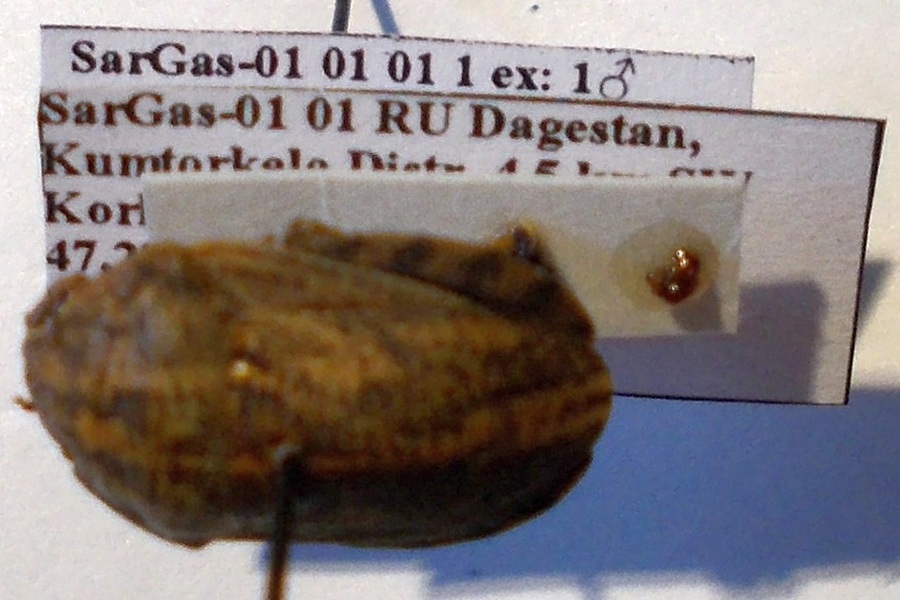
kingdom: Animalia
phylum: Arthropoda
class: Insecta
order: Hemiptera
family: Scutelleridae
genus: Eurygaster
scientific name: Eurygaster integriceps
